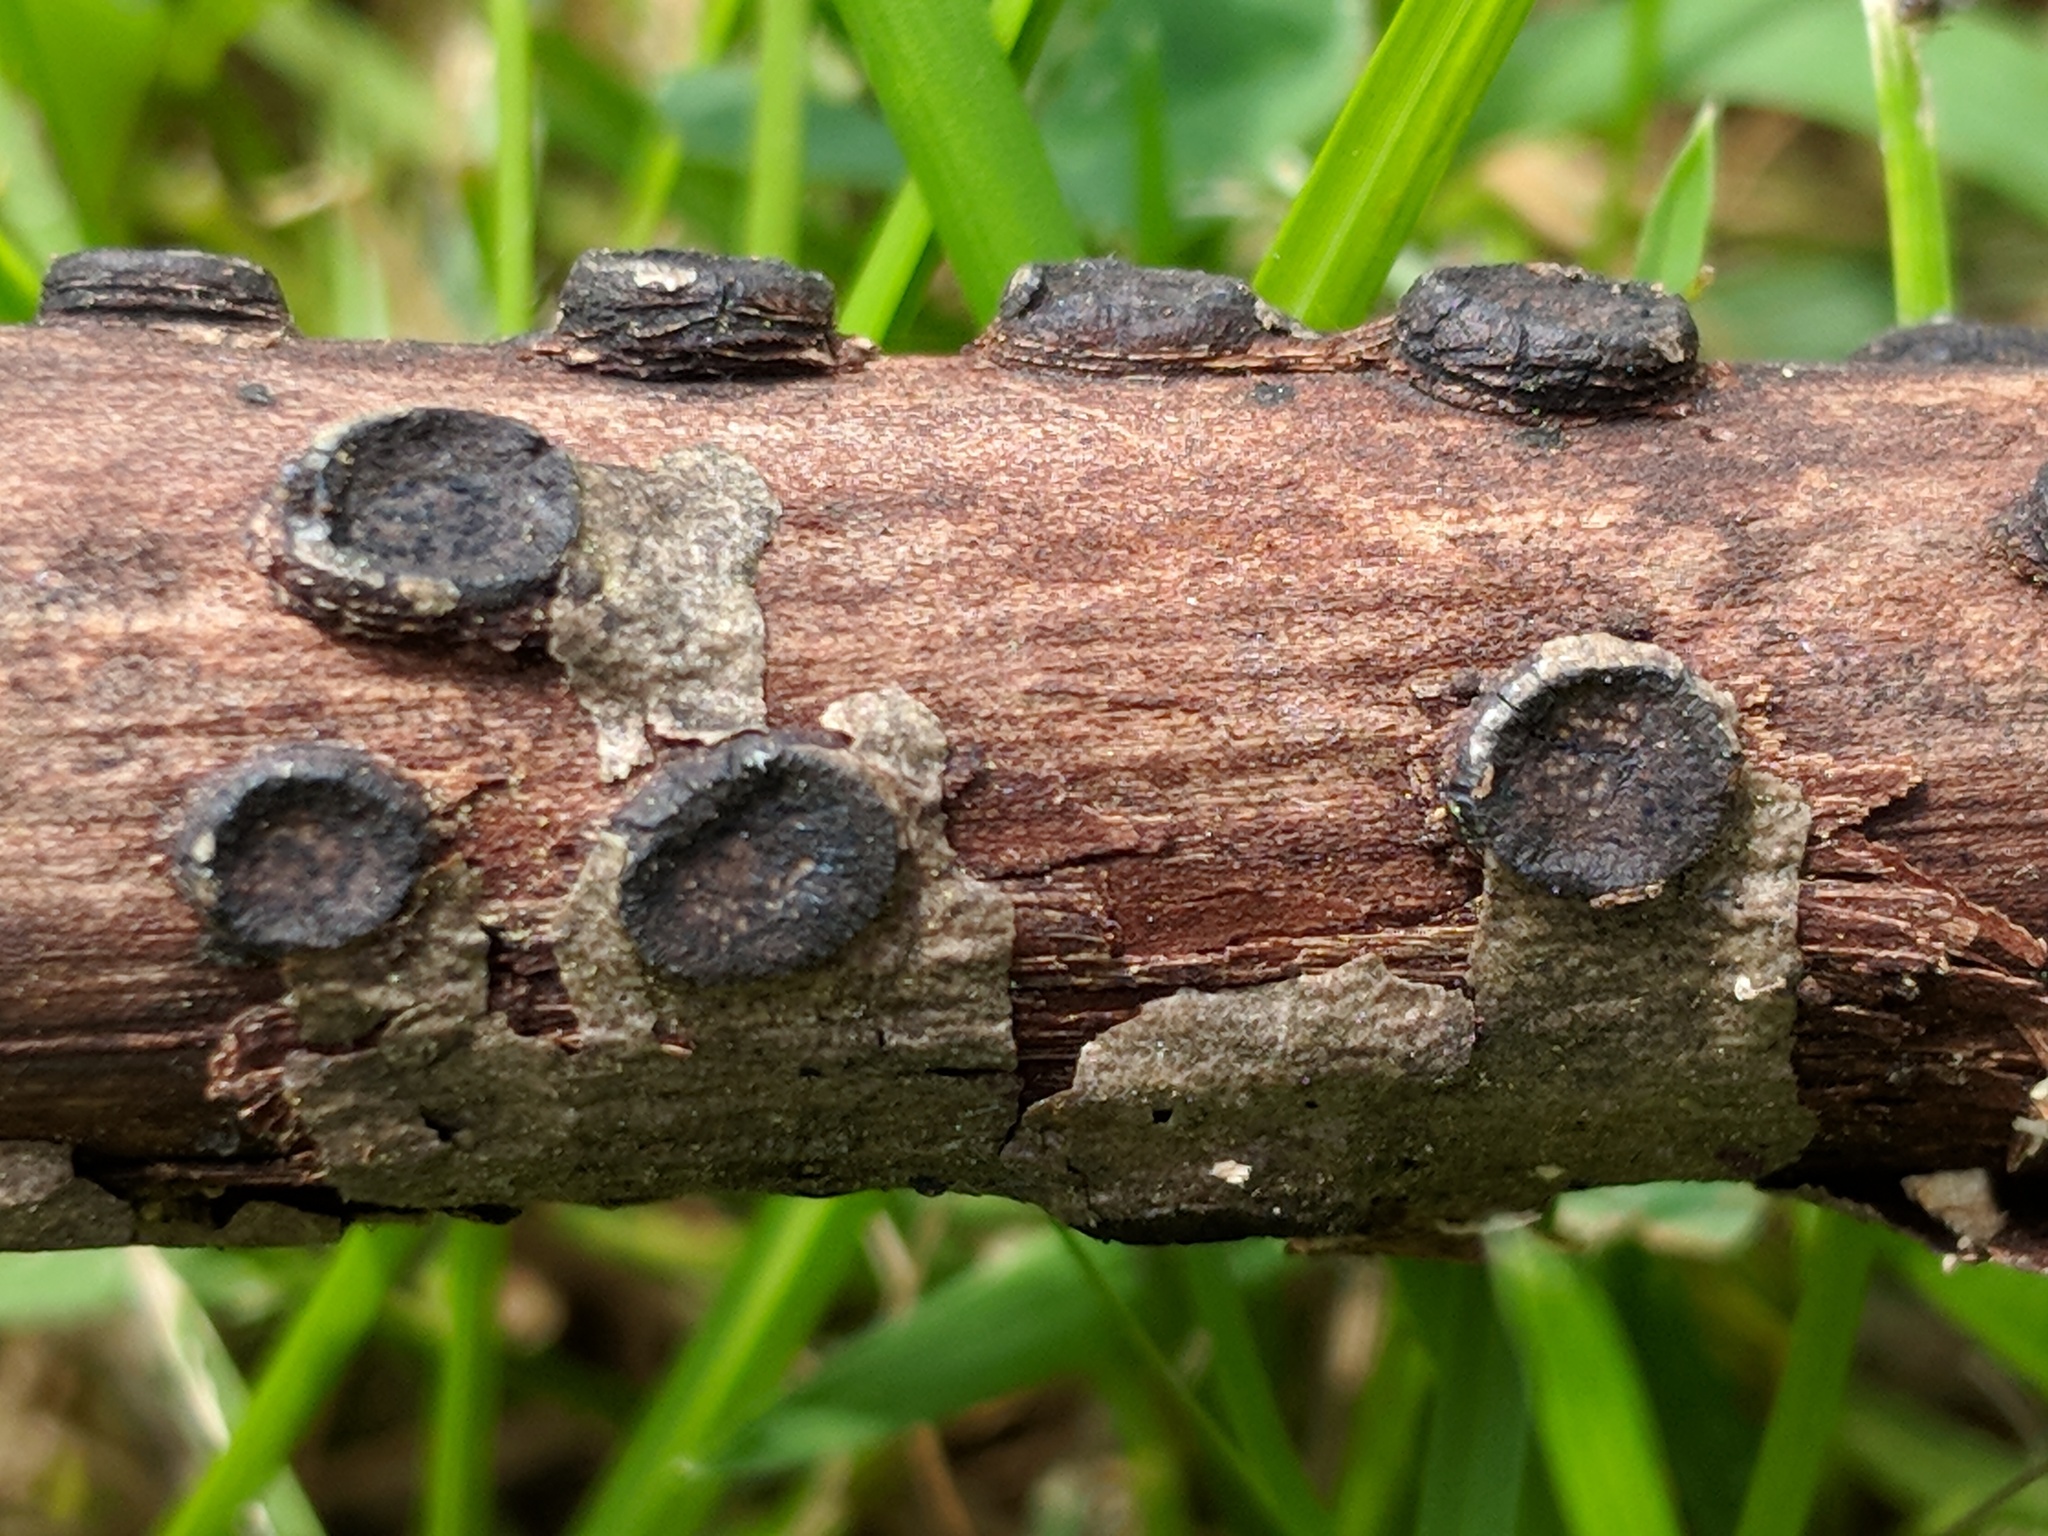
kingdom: Fungi
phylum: Ascomycota
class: Sordariomycetes
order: Xylariales
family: Graphostromataceae
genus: Biscogniauxia
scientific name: Biscogniauxia marginata
